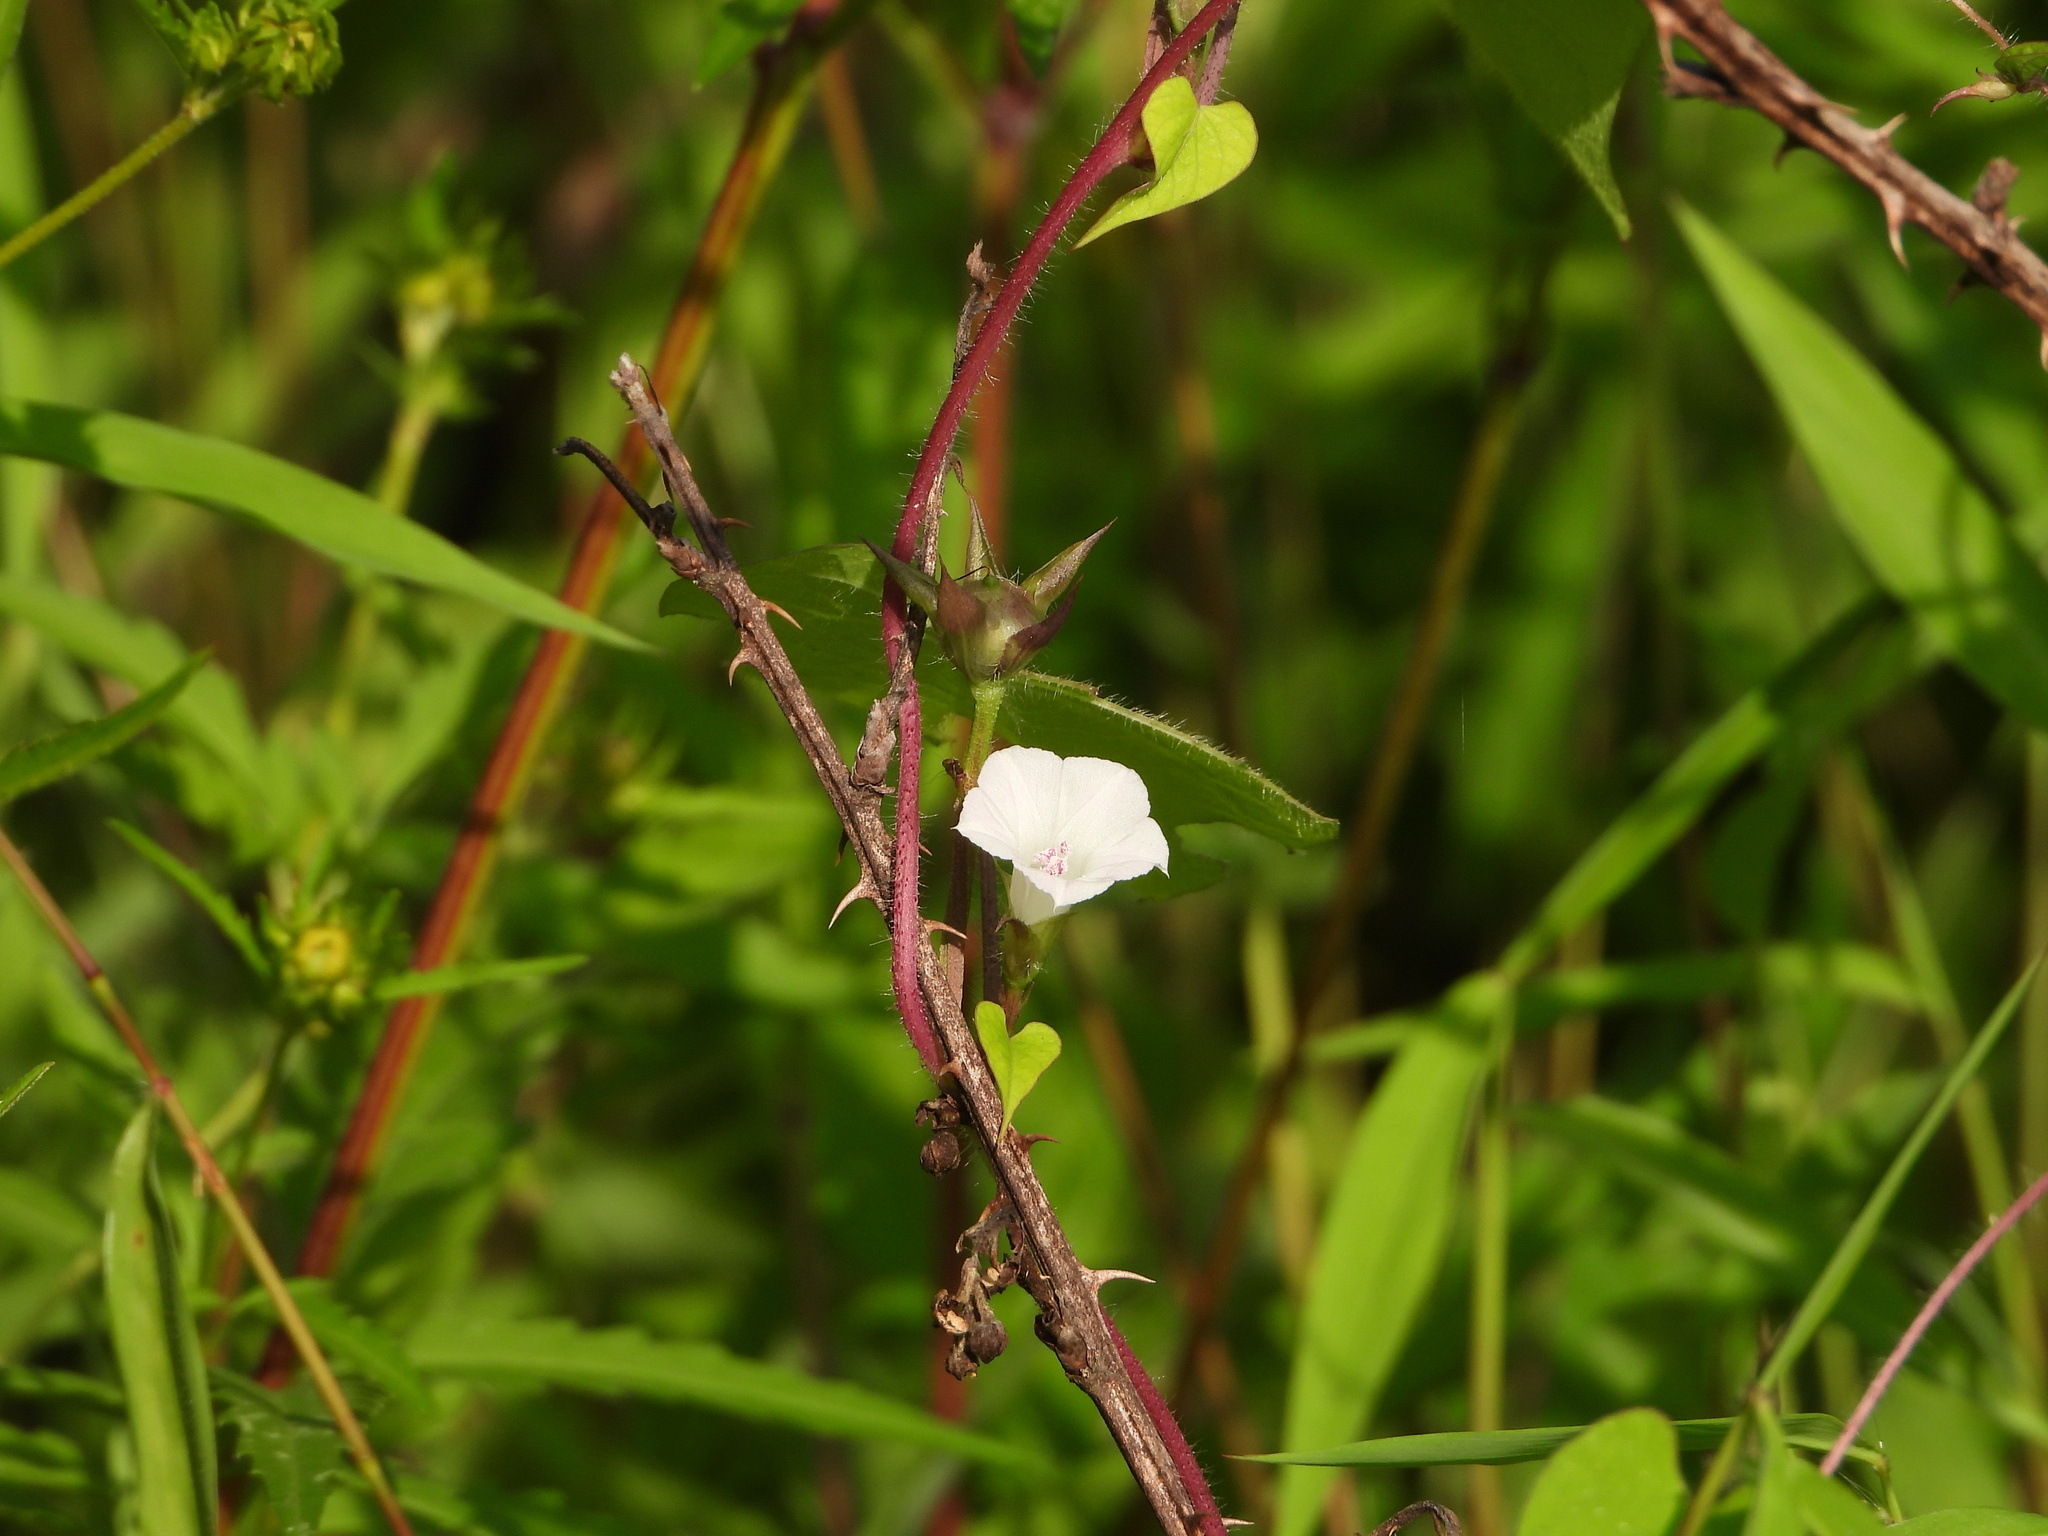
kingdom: Plantae
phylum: Tracheophyta
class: Magnoliopsida
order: Solanales
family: Convolvulaceae
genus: Ipomoea
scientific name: Ipomoea lacunosa
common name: White morning-glory
